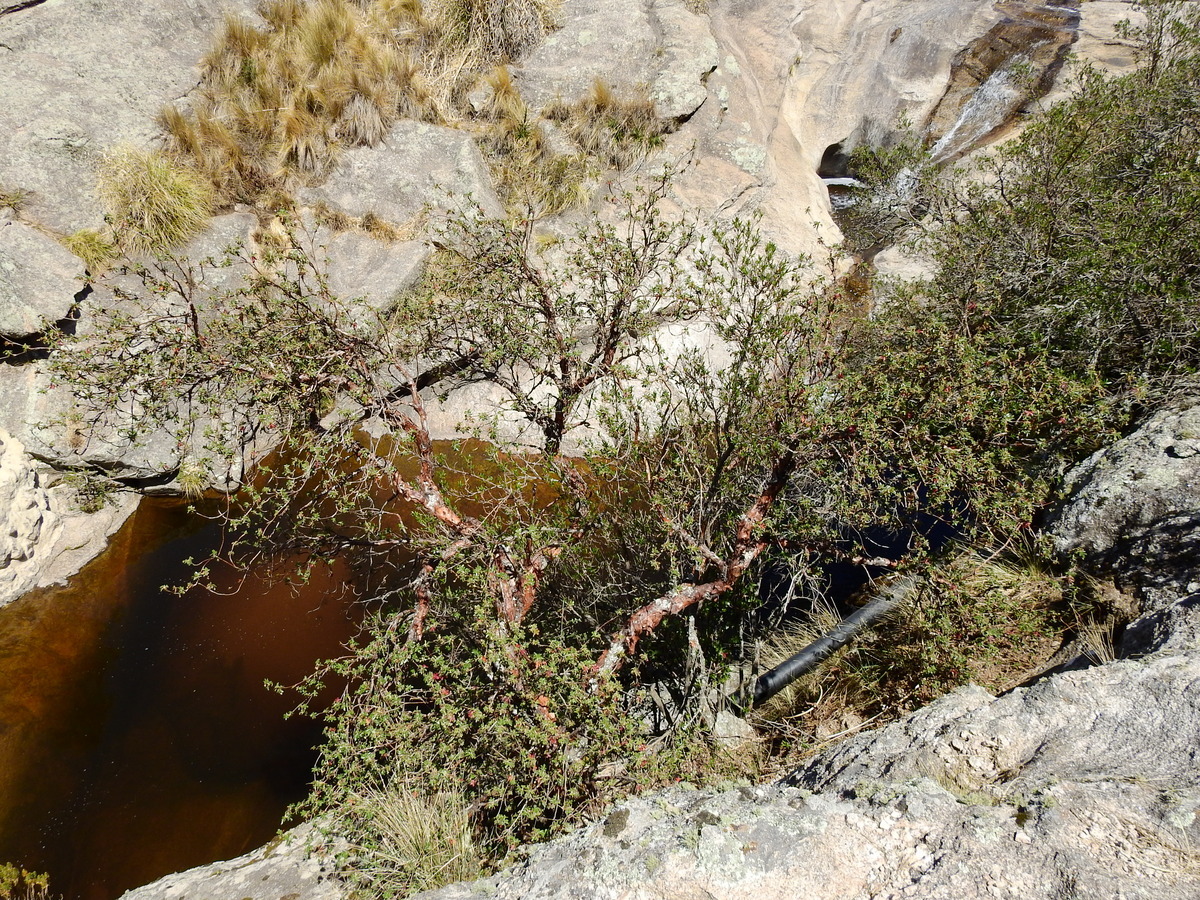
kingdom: Plantae
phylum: Tracheophyta
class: Magnoliopsida
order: Rosales
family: Rosaceae
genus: Polylepis
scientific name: Polylepis australis
